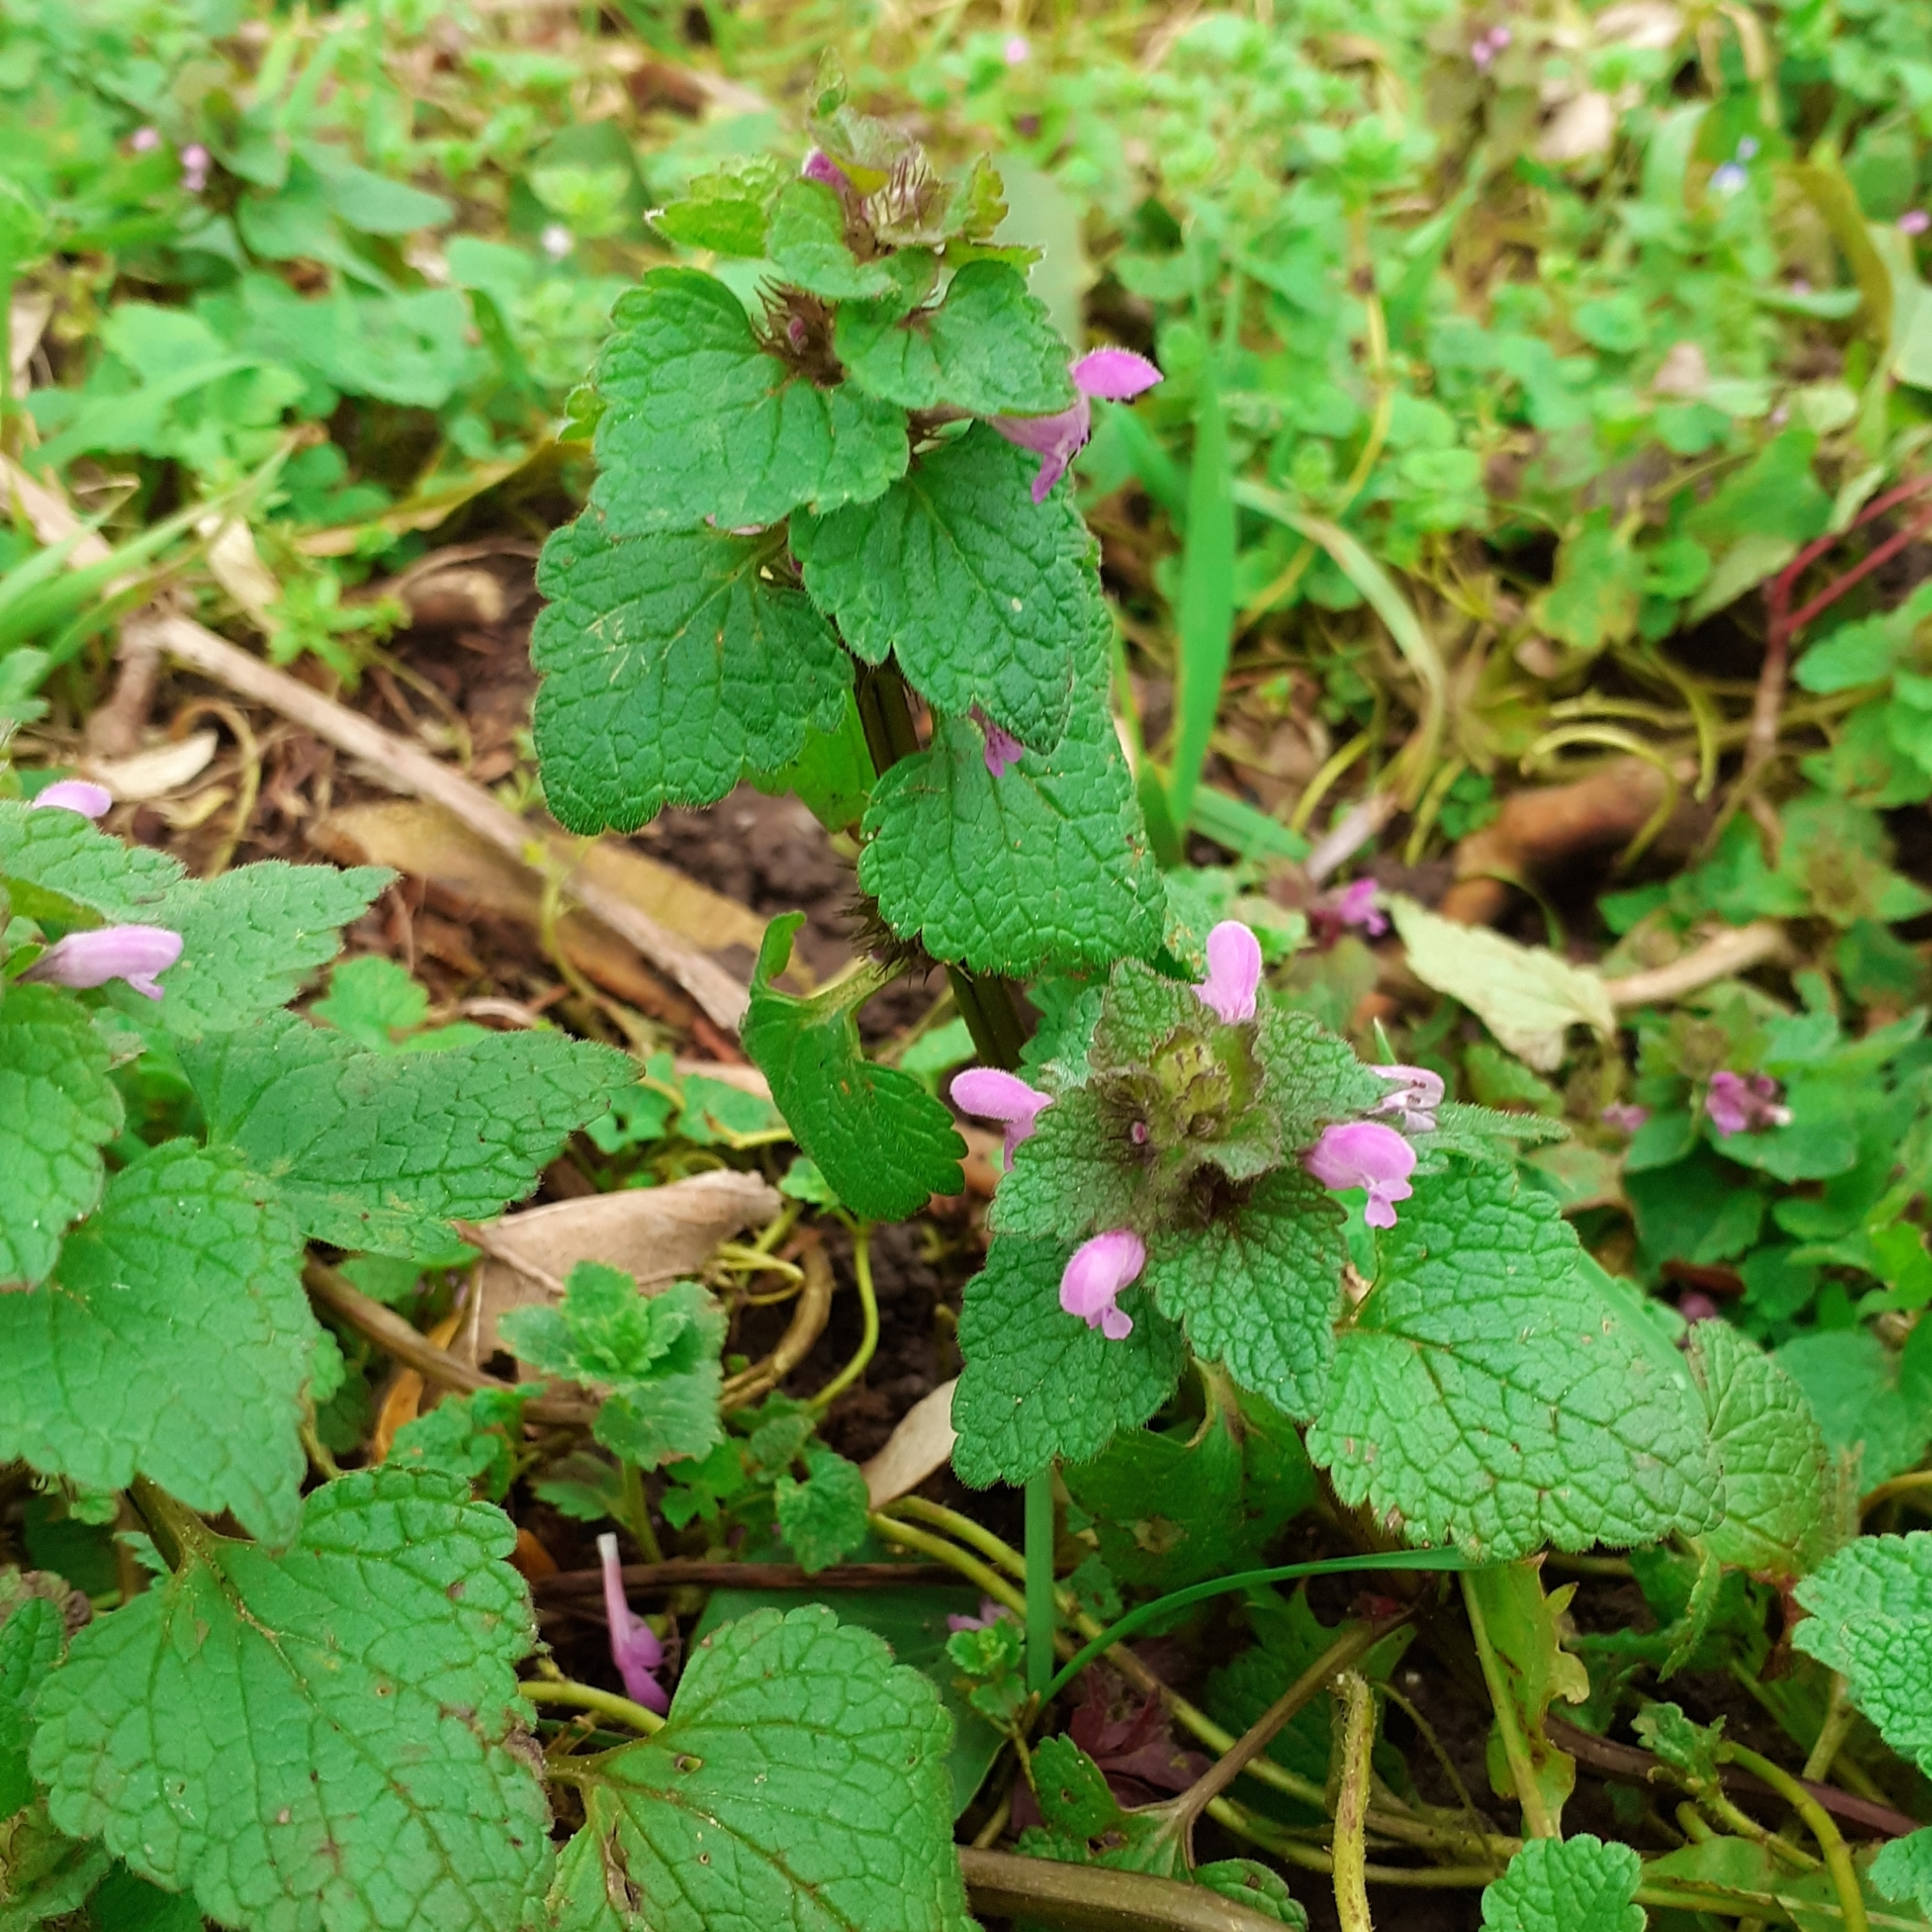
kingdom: Plantae
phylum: Tracheophyta
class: Magnoliopsida
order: Lamiales
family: Lamiaceae
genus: Lamium
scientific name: Lamium purpureum
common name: Red dead-nettle
